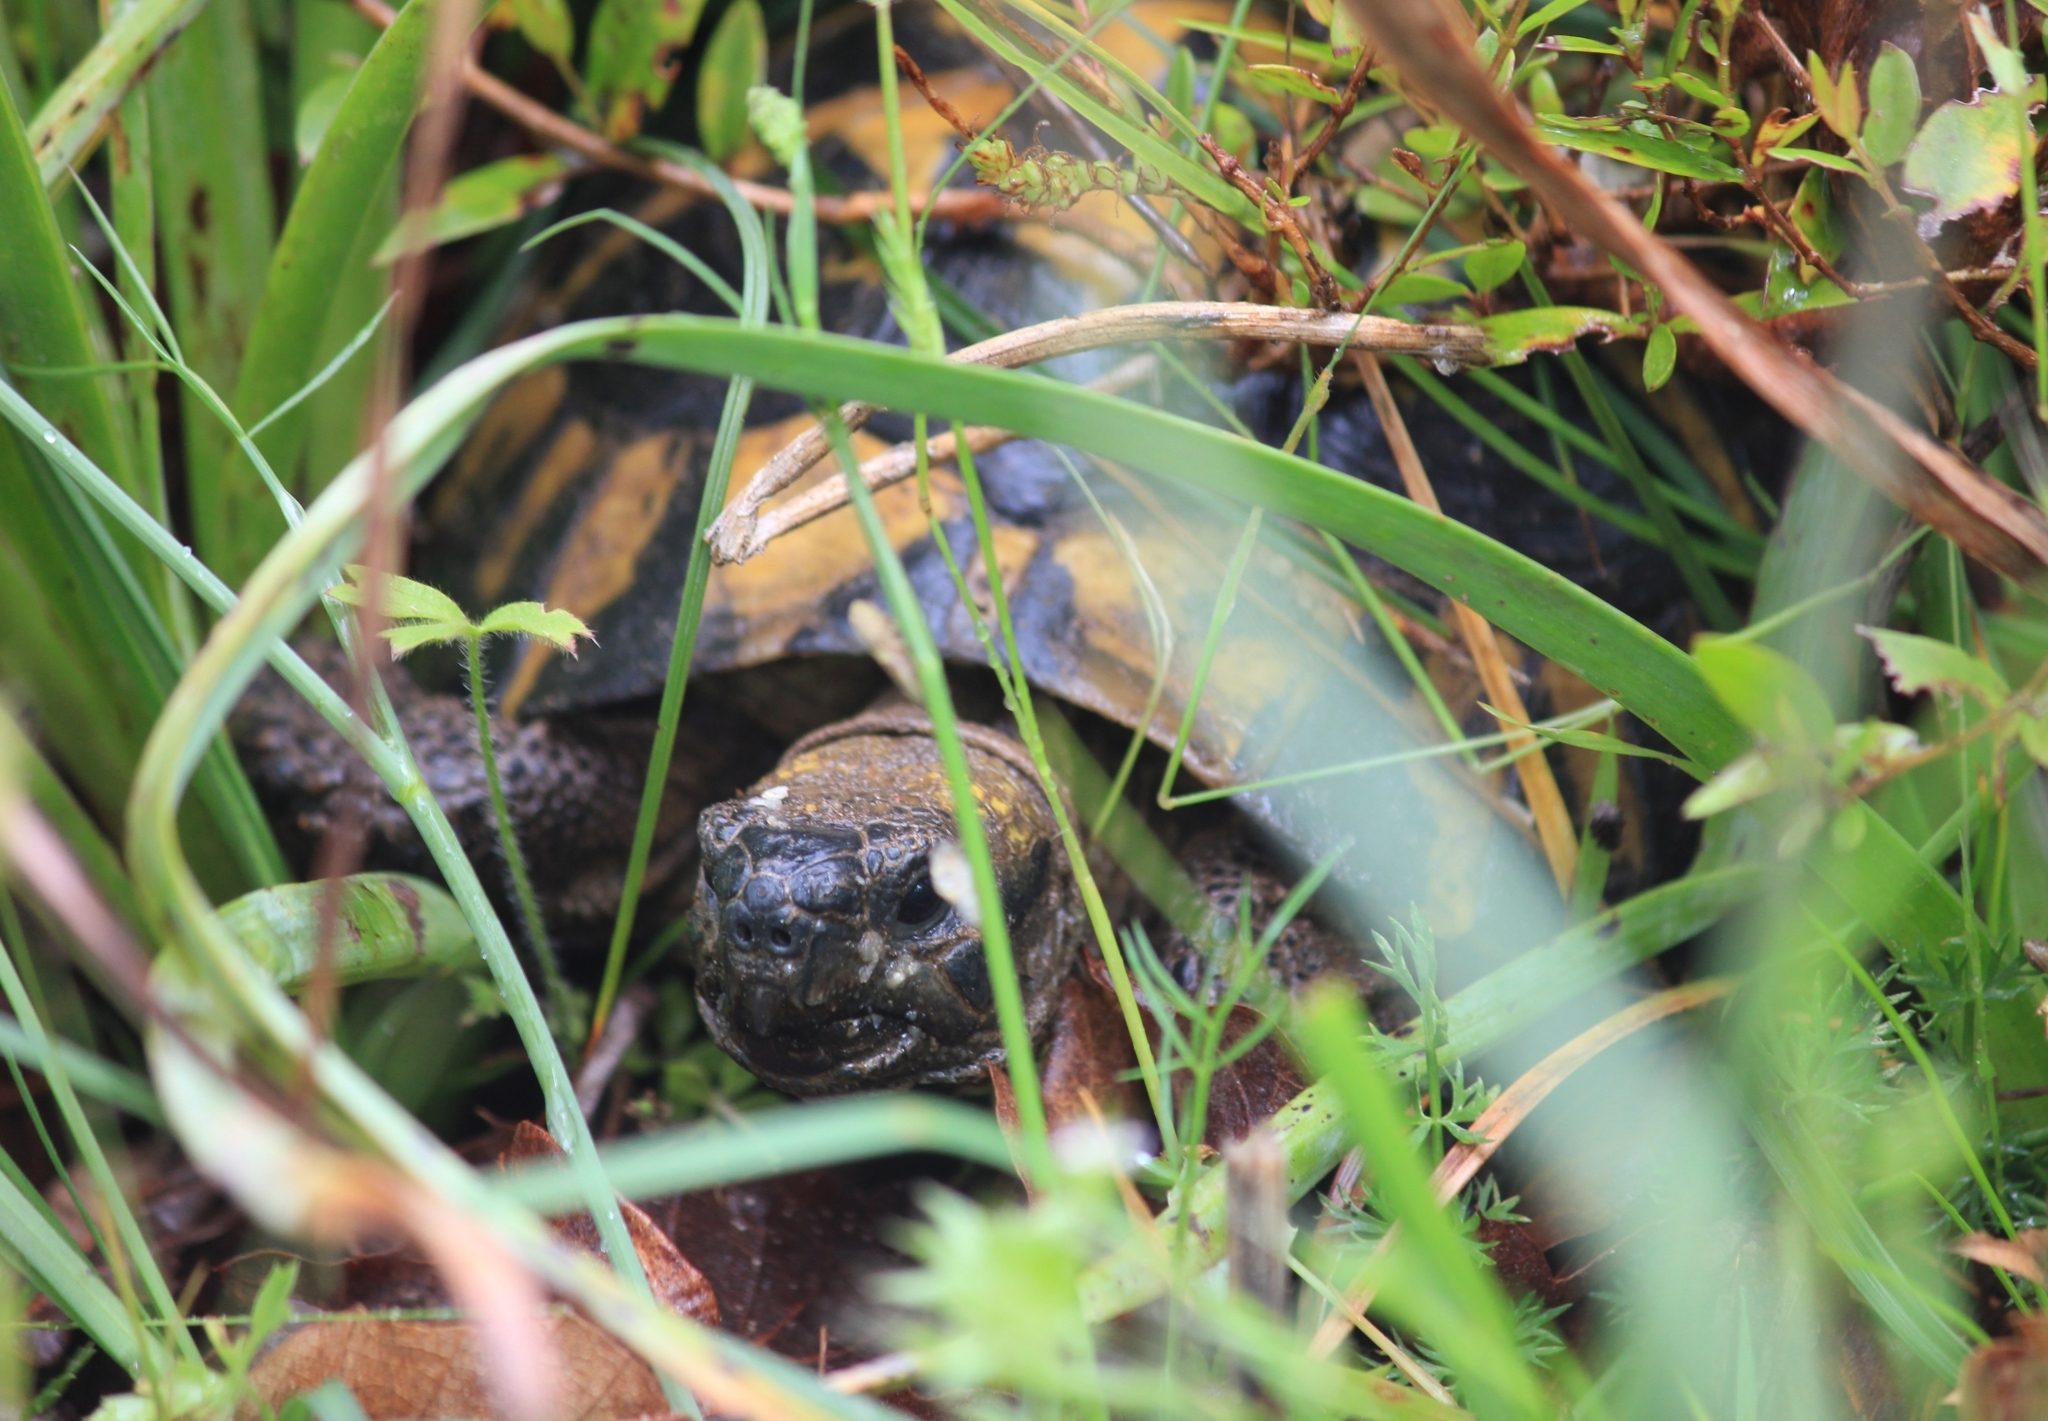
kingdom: Animalia
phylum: Chordata
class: Testudines
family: Testudinidae
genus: Testudo
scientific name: Testudo hermanni
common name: Hermann's tortoise
